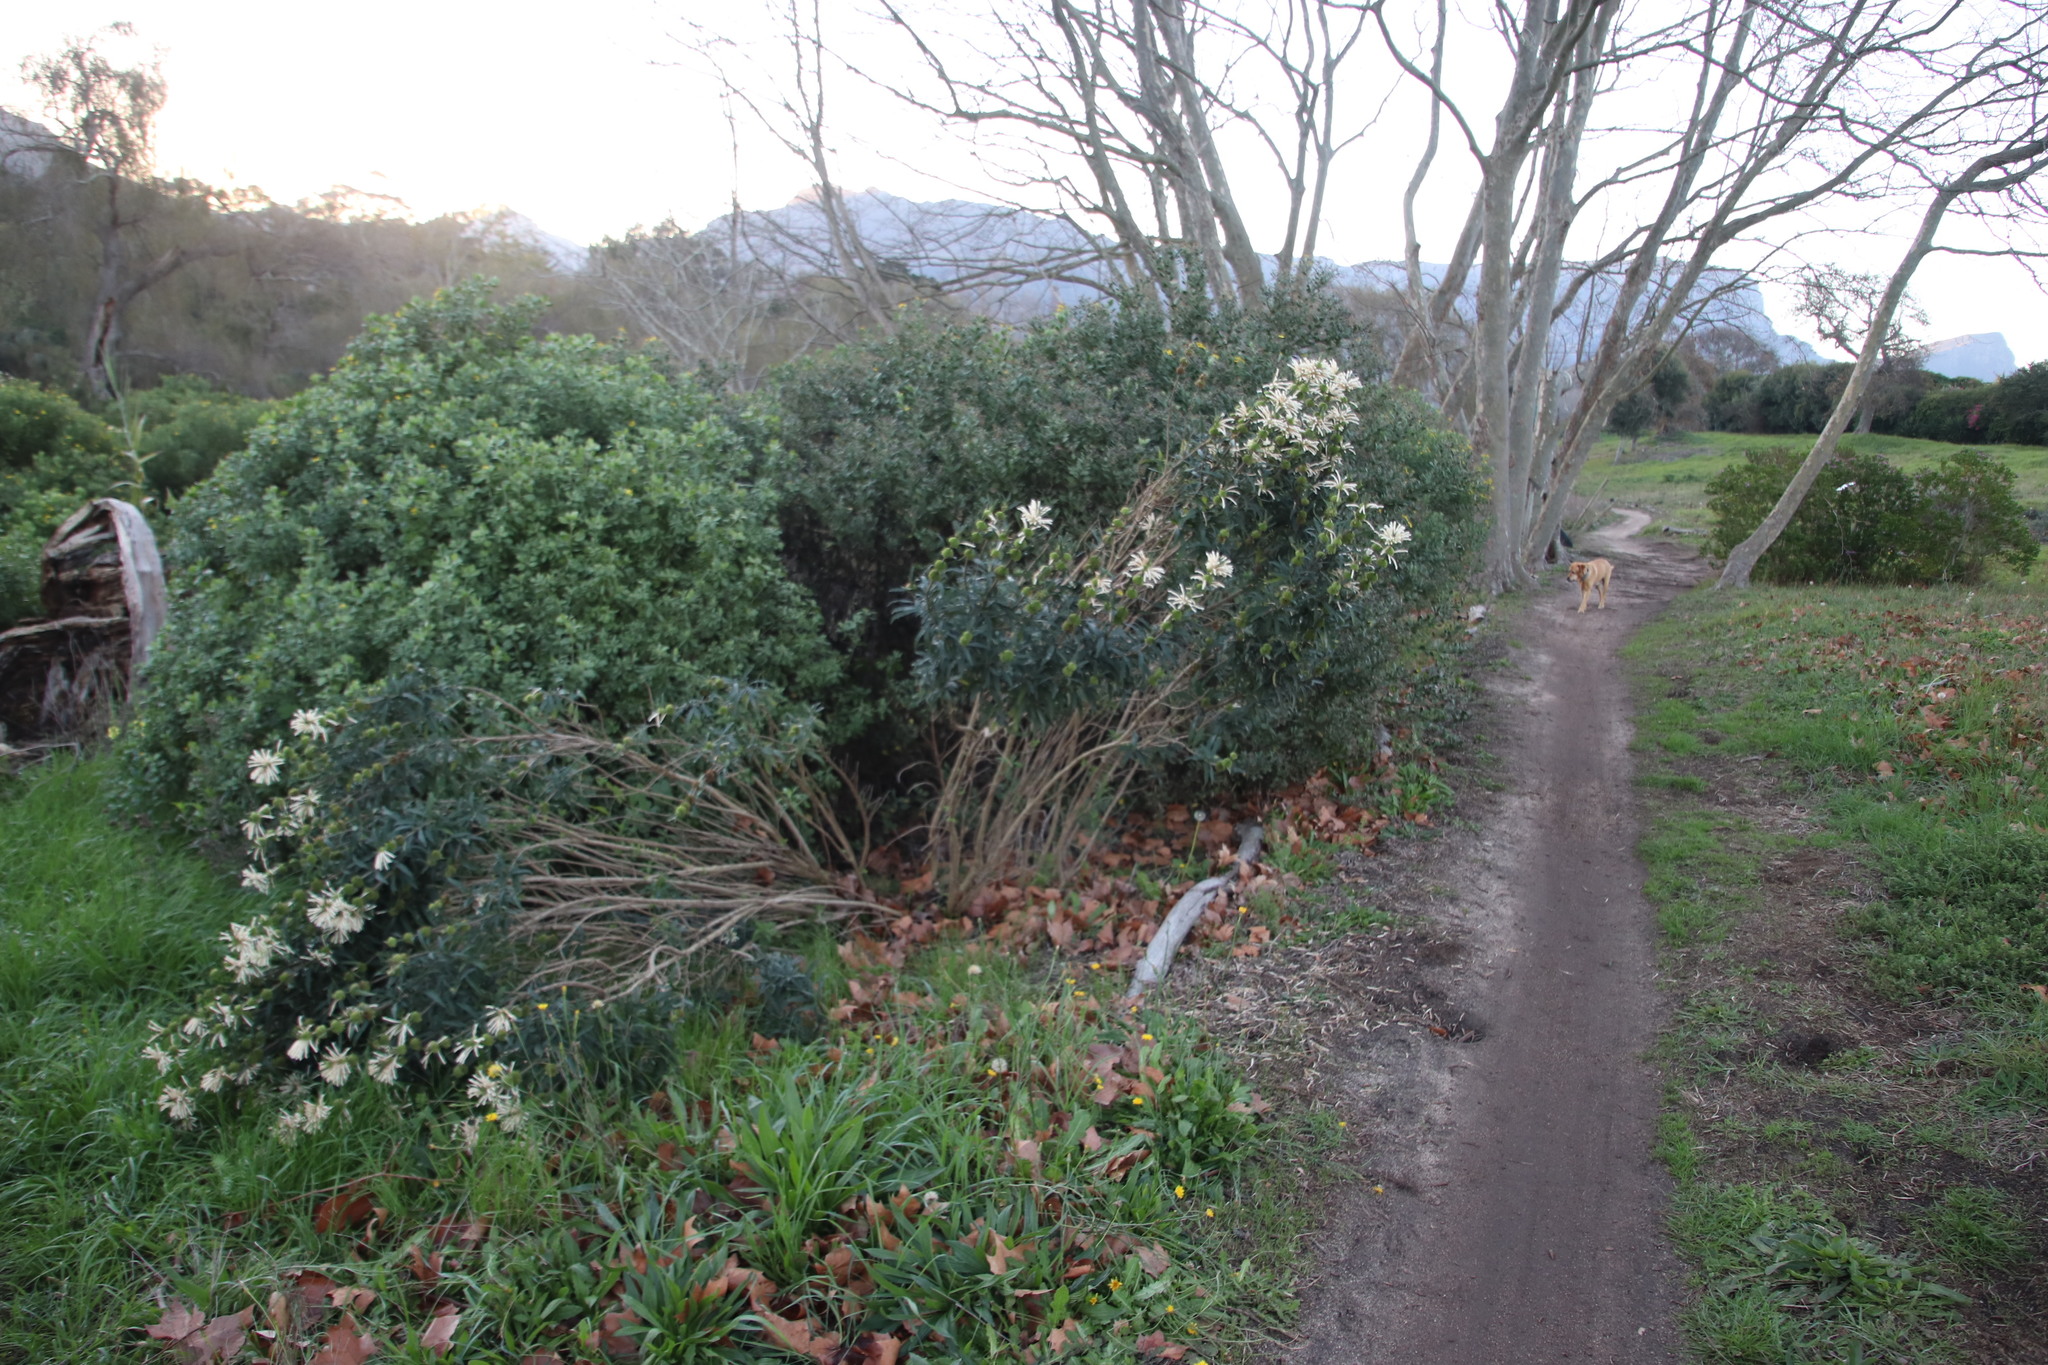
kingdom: Plantae
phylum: Tracheophyta
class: Magnoliopsida
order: Lamiales
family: Lamiaceae
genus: Leonotis
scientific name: Leonotis leonurus
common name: Lion's ear
